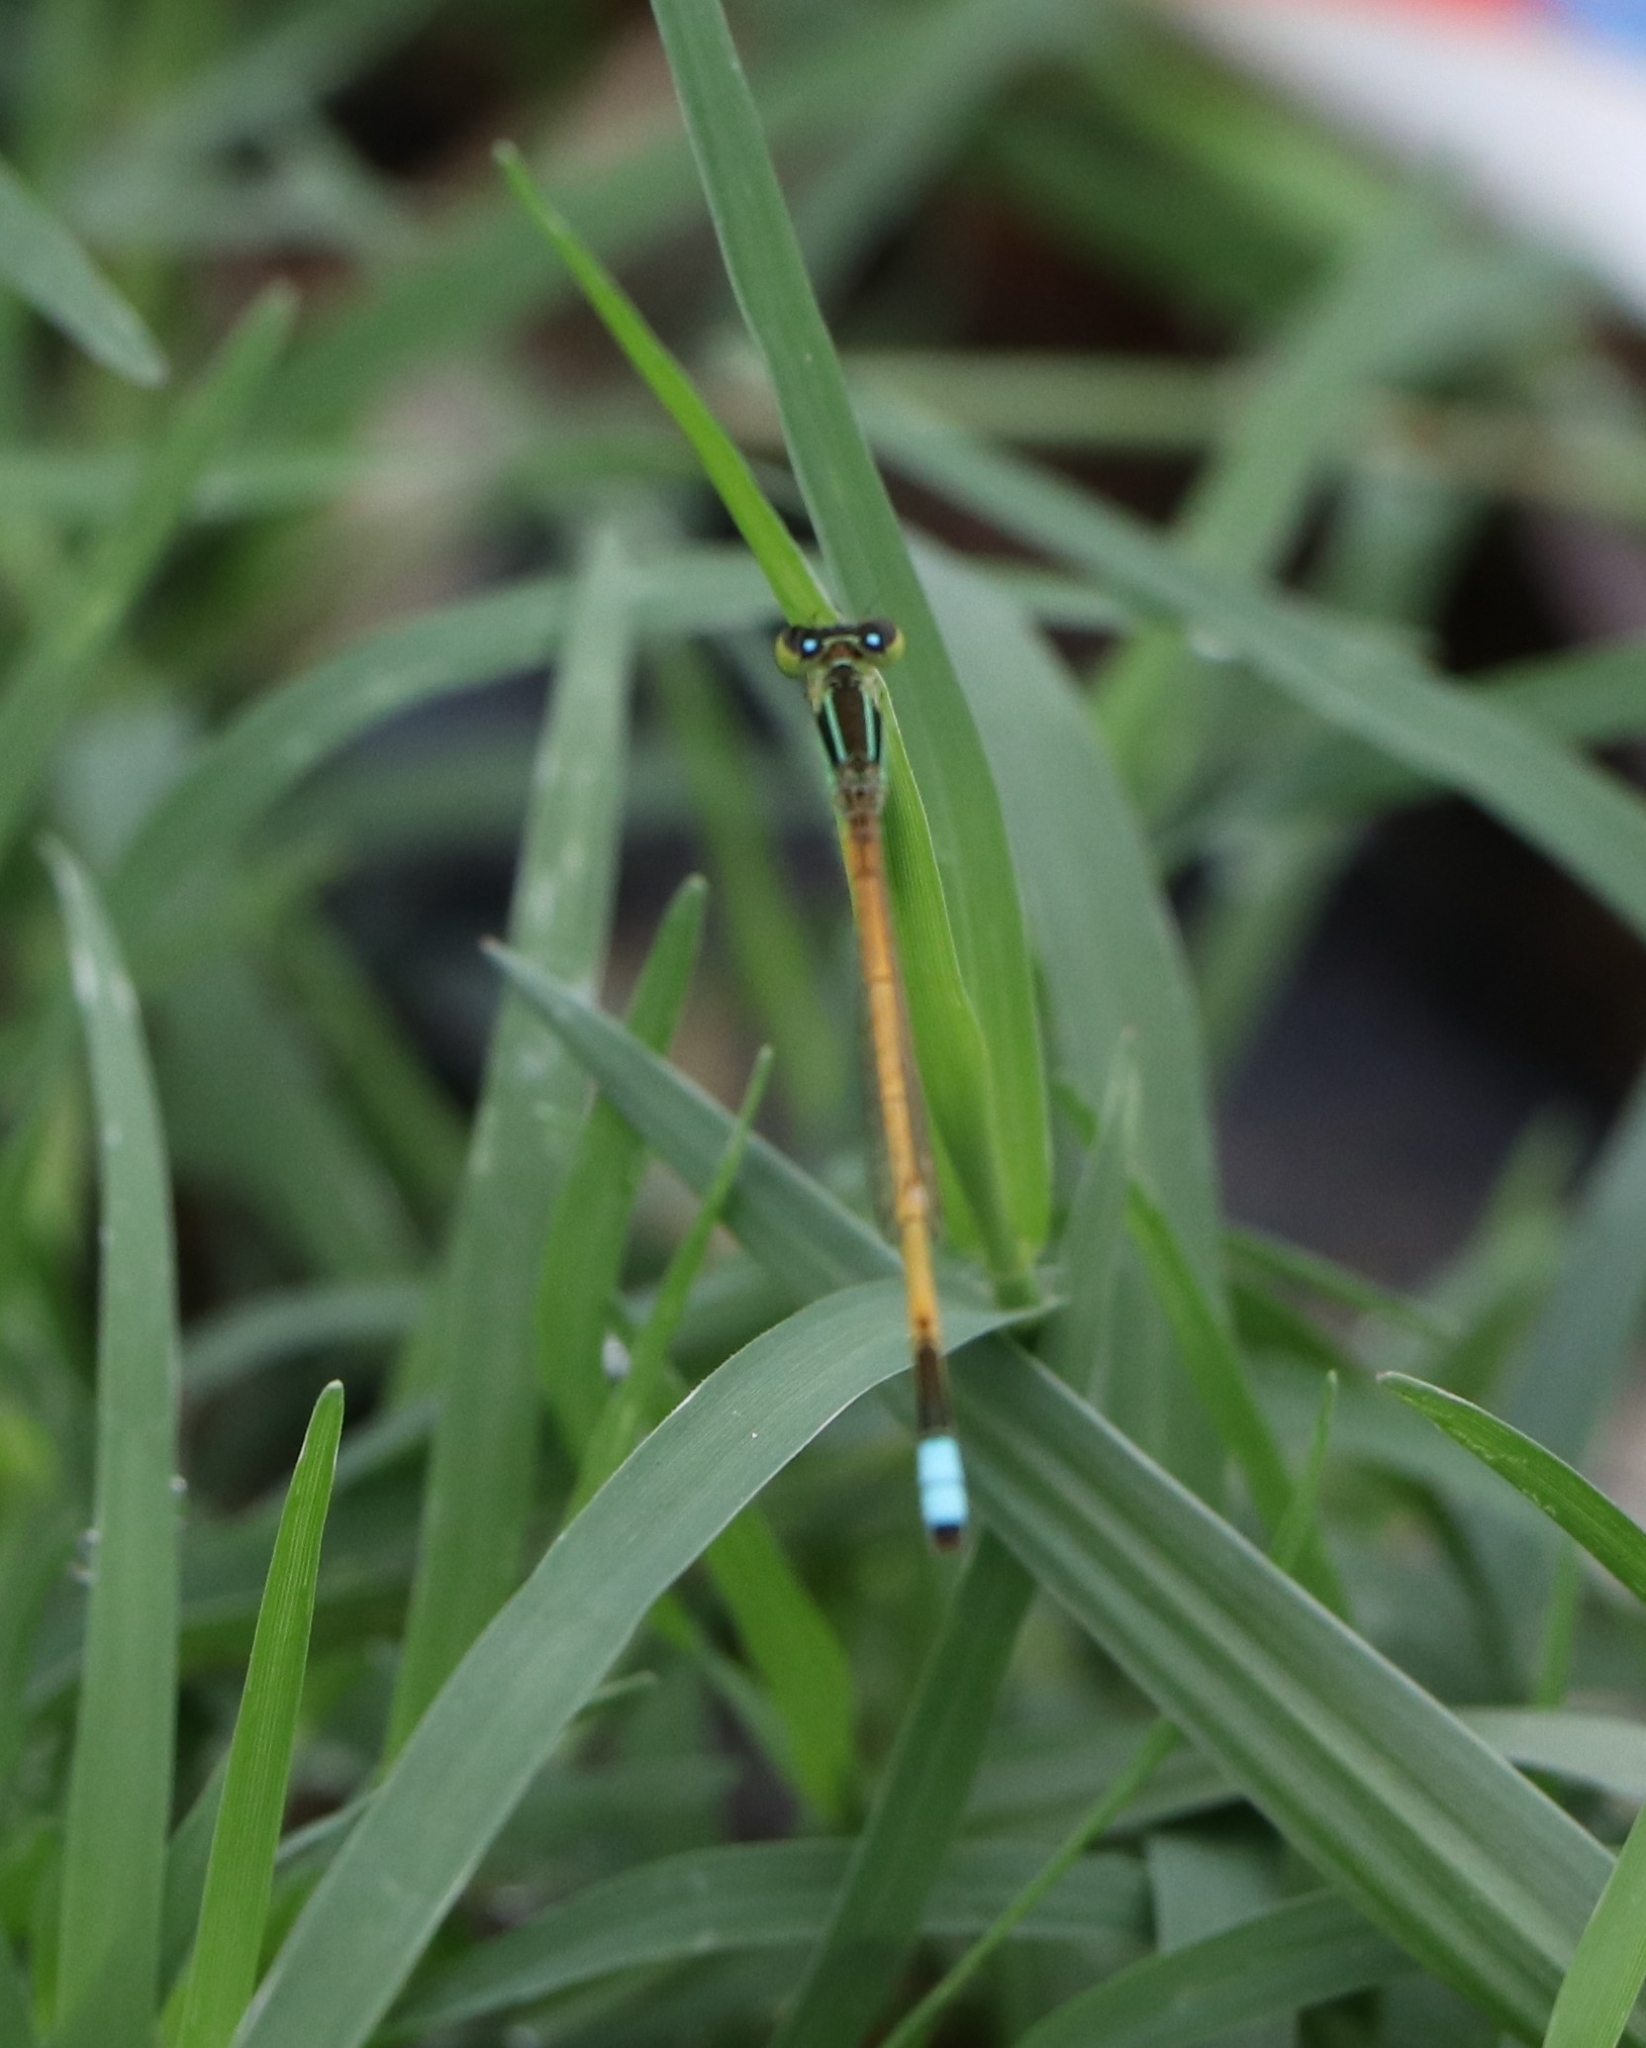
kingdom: Animalia
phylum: Arthropoda
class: Insecta
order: Odonata
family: Coenagrionidae
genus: Ischnura
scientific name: Ischnura rubilio
